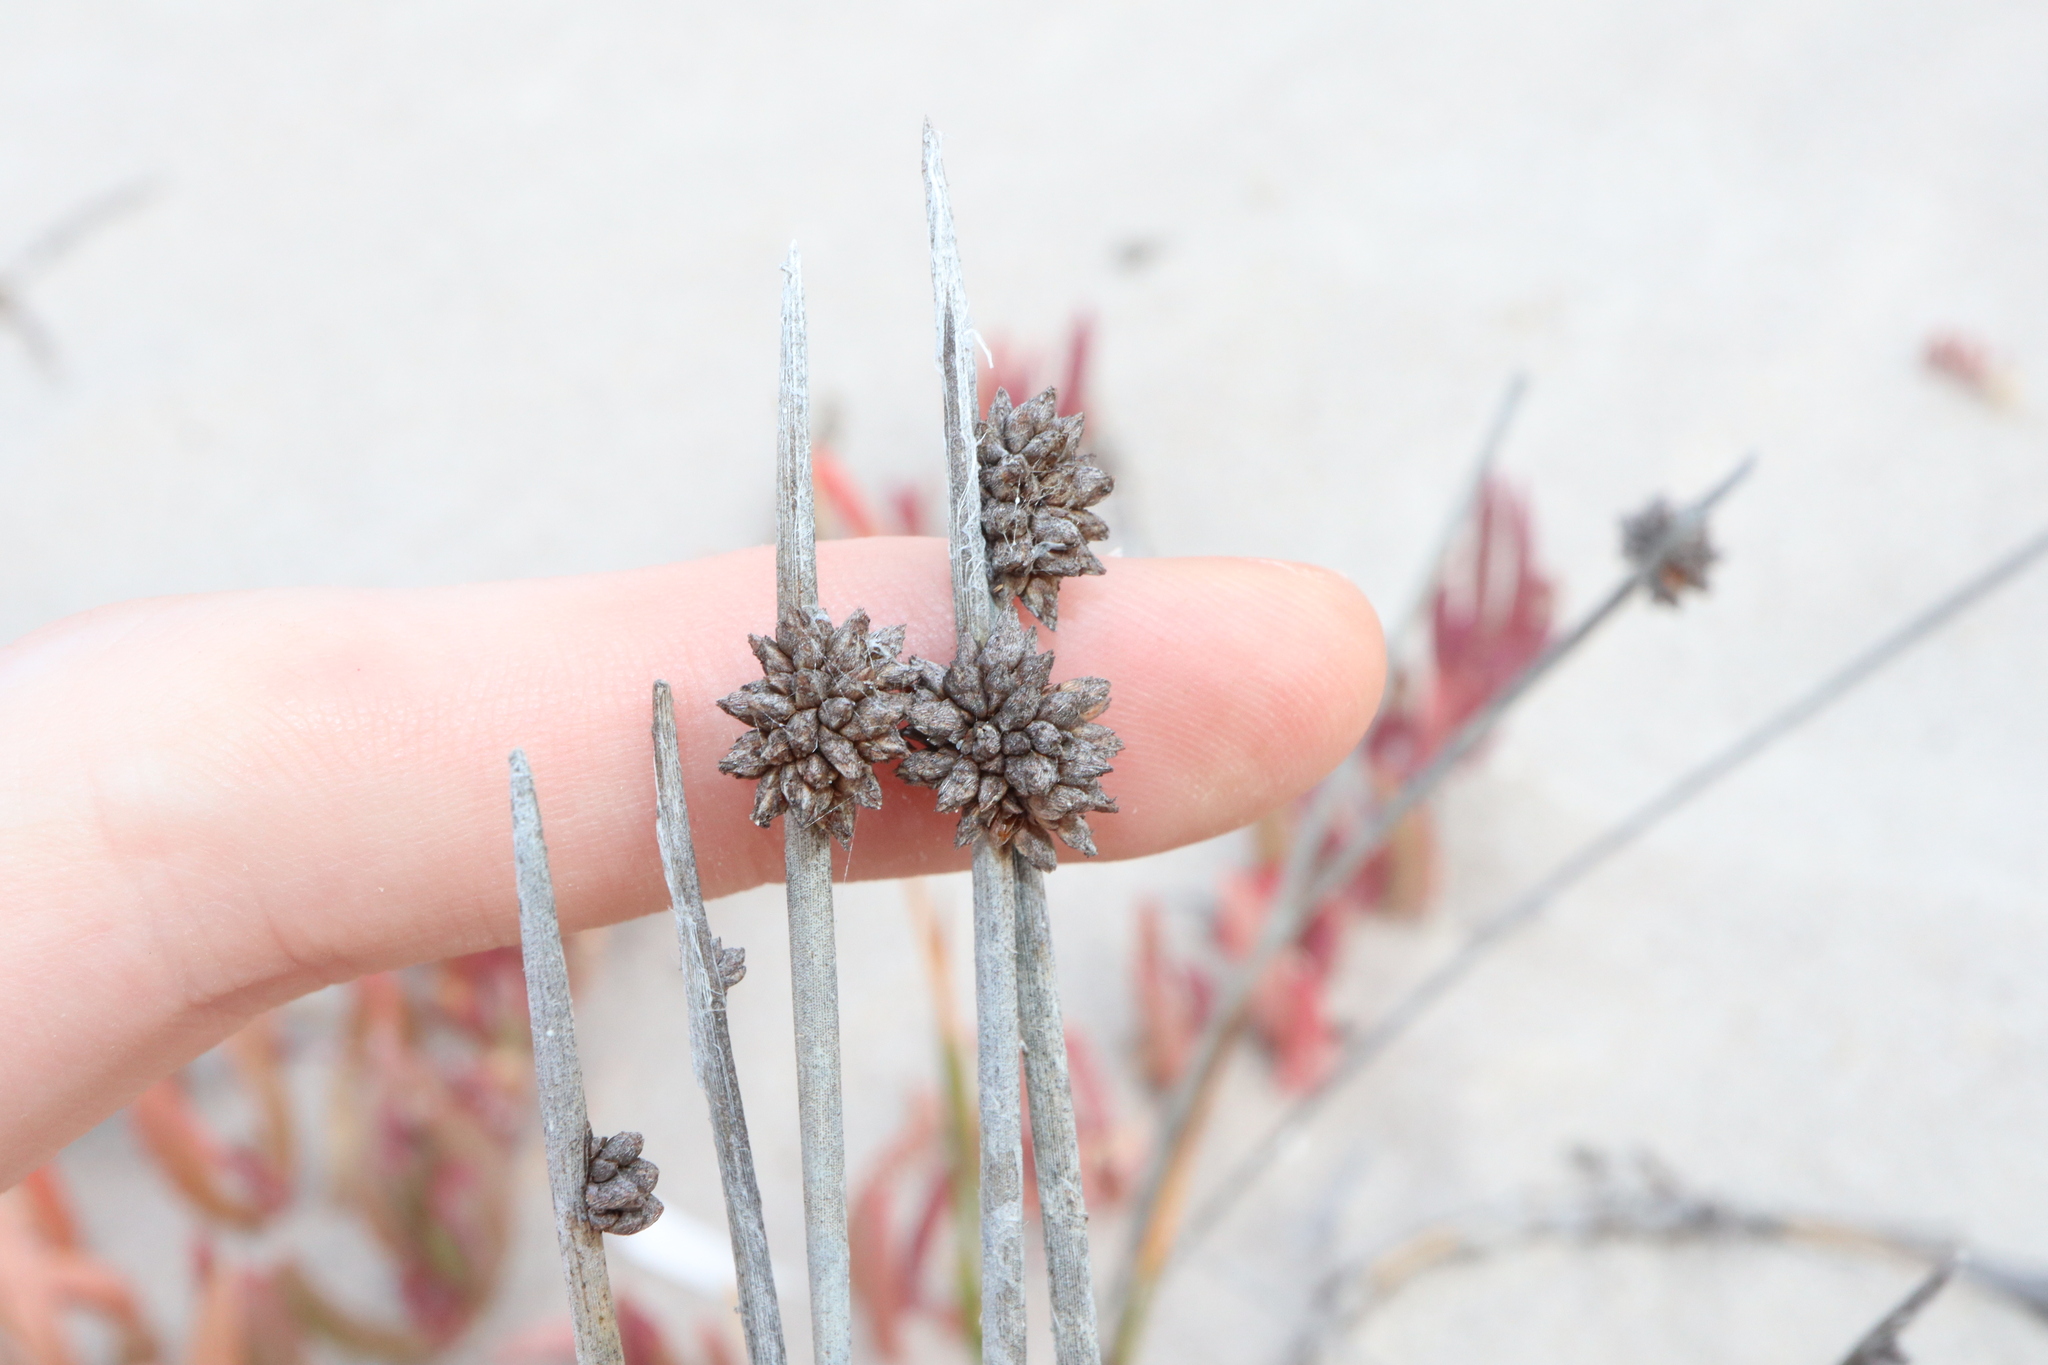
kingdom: Plantae
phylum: Tracheophyta
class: Liliopsida
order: Poales
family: Cyperaceae
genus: Ficinia
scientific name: Ficinia nodosa
